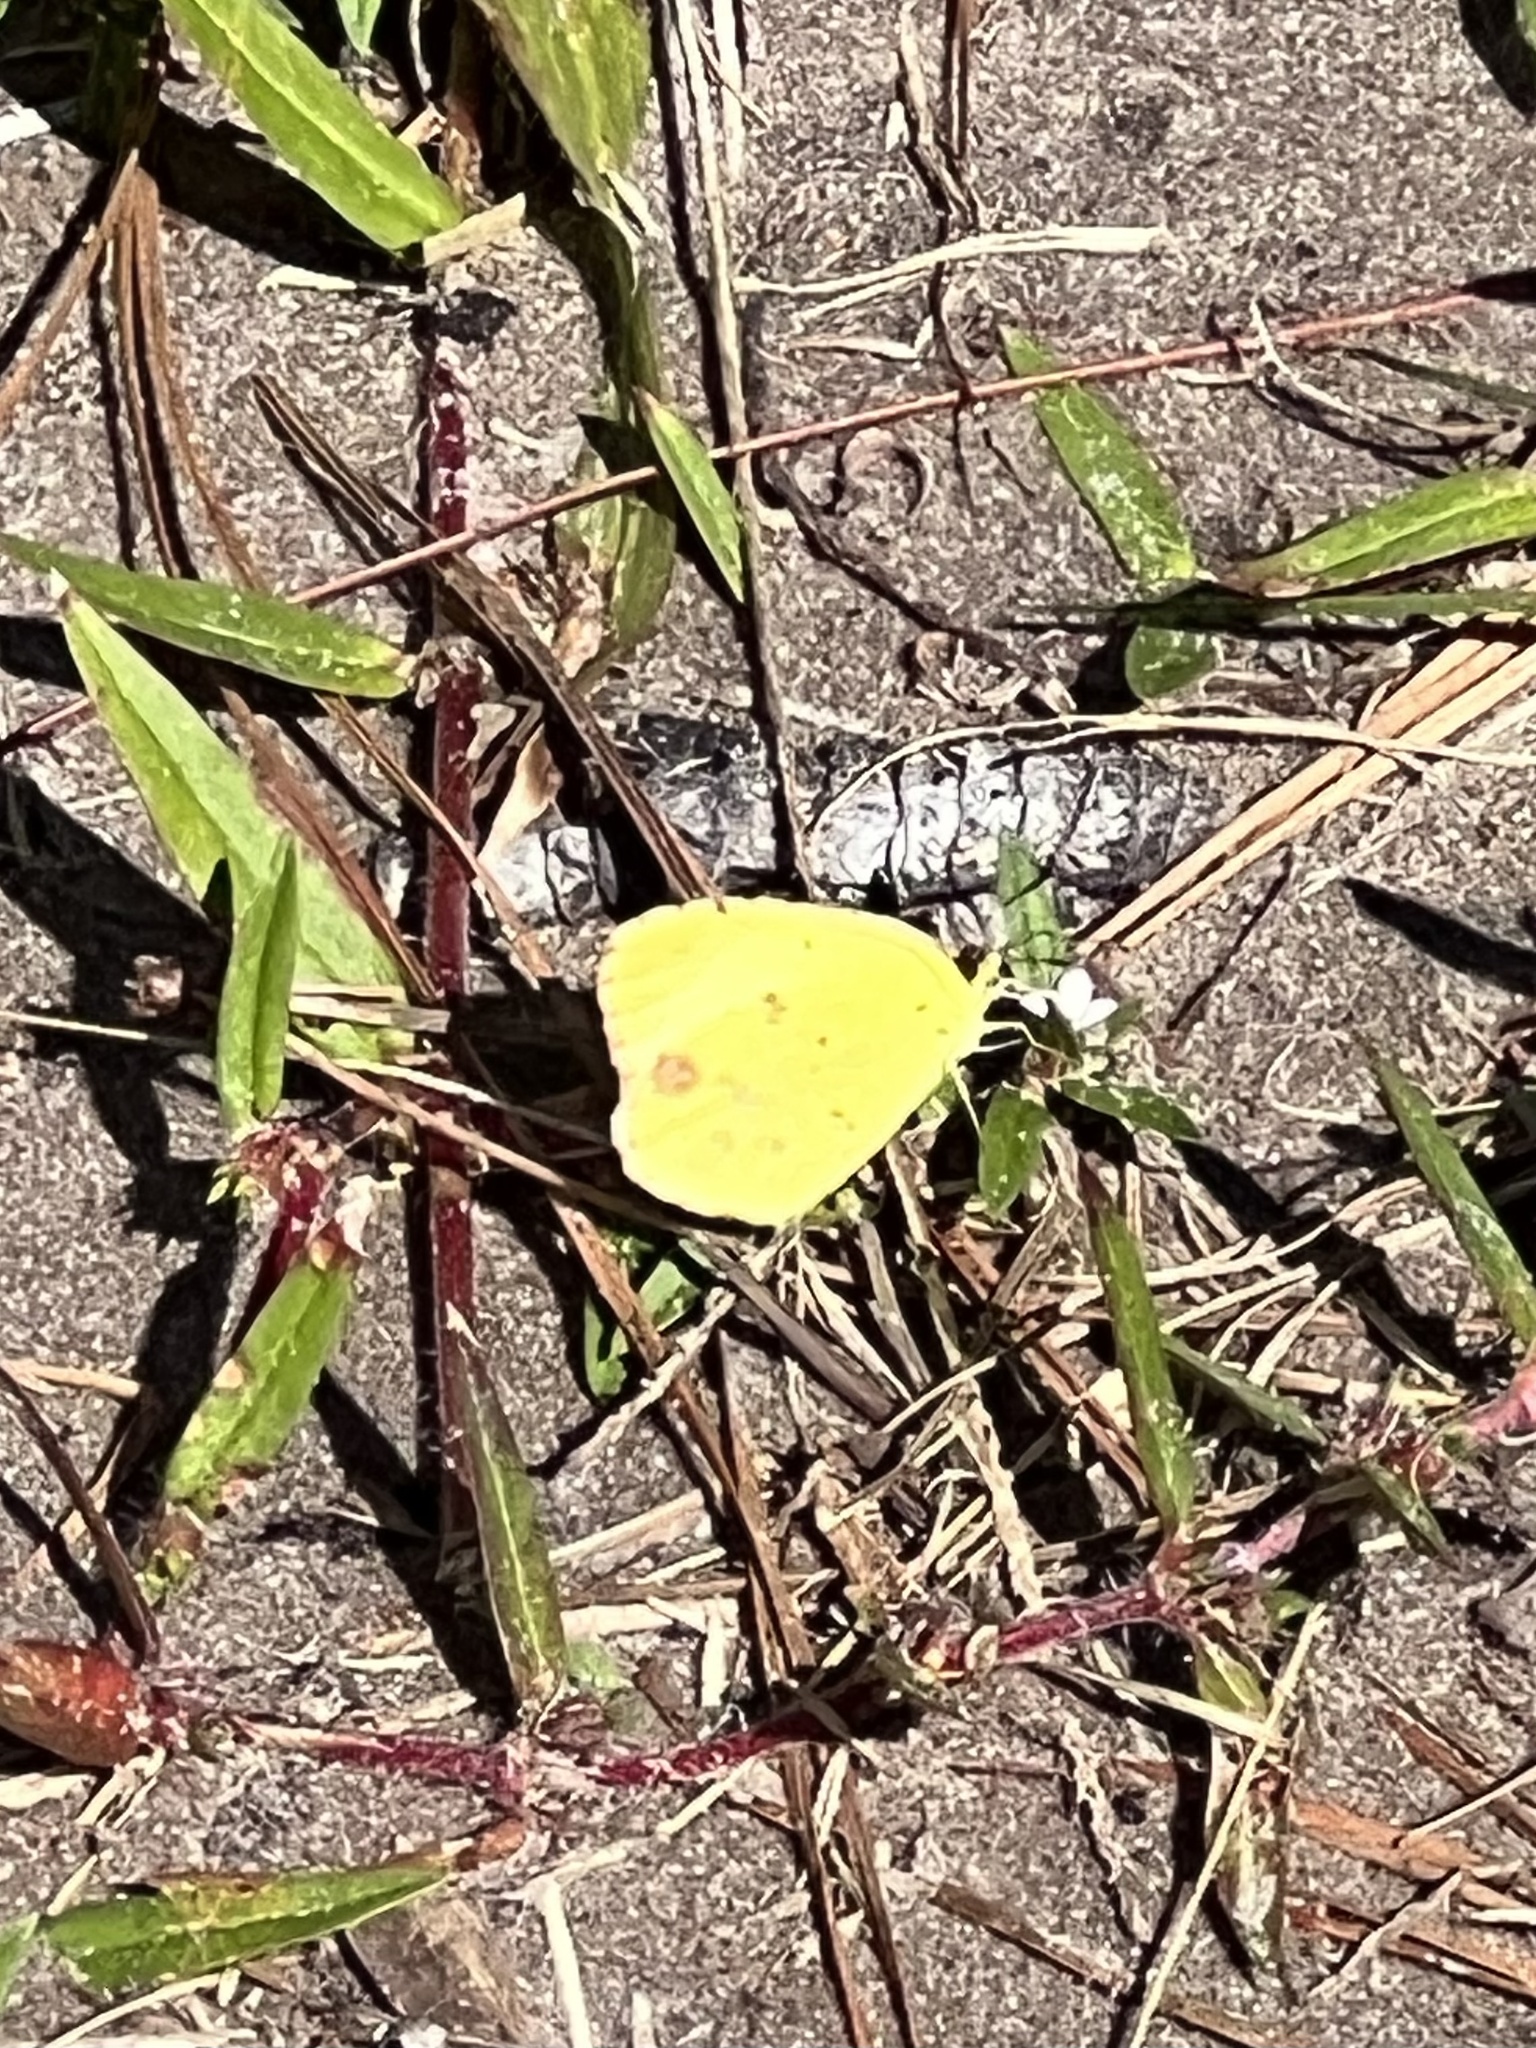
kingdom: Animalia
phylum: Arthropoda
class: Insecta
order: Lepidoptera
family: Pieridae
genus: Pyrisitia
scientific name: Pyrisitia lisa
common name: Little yellow
